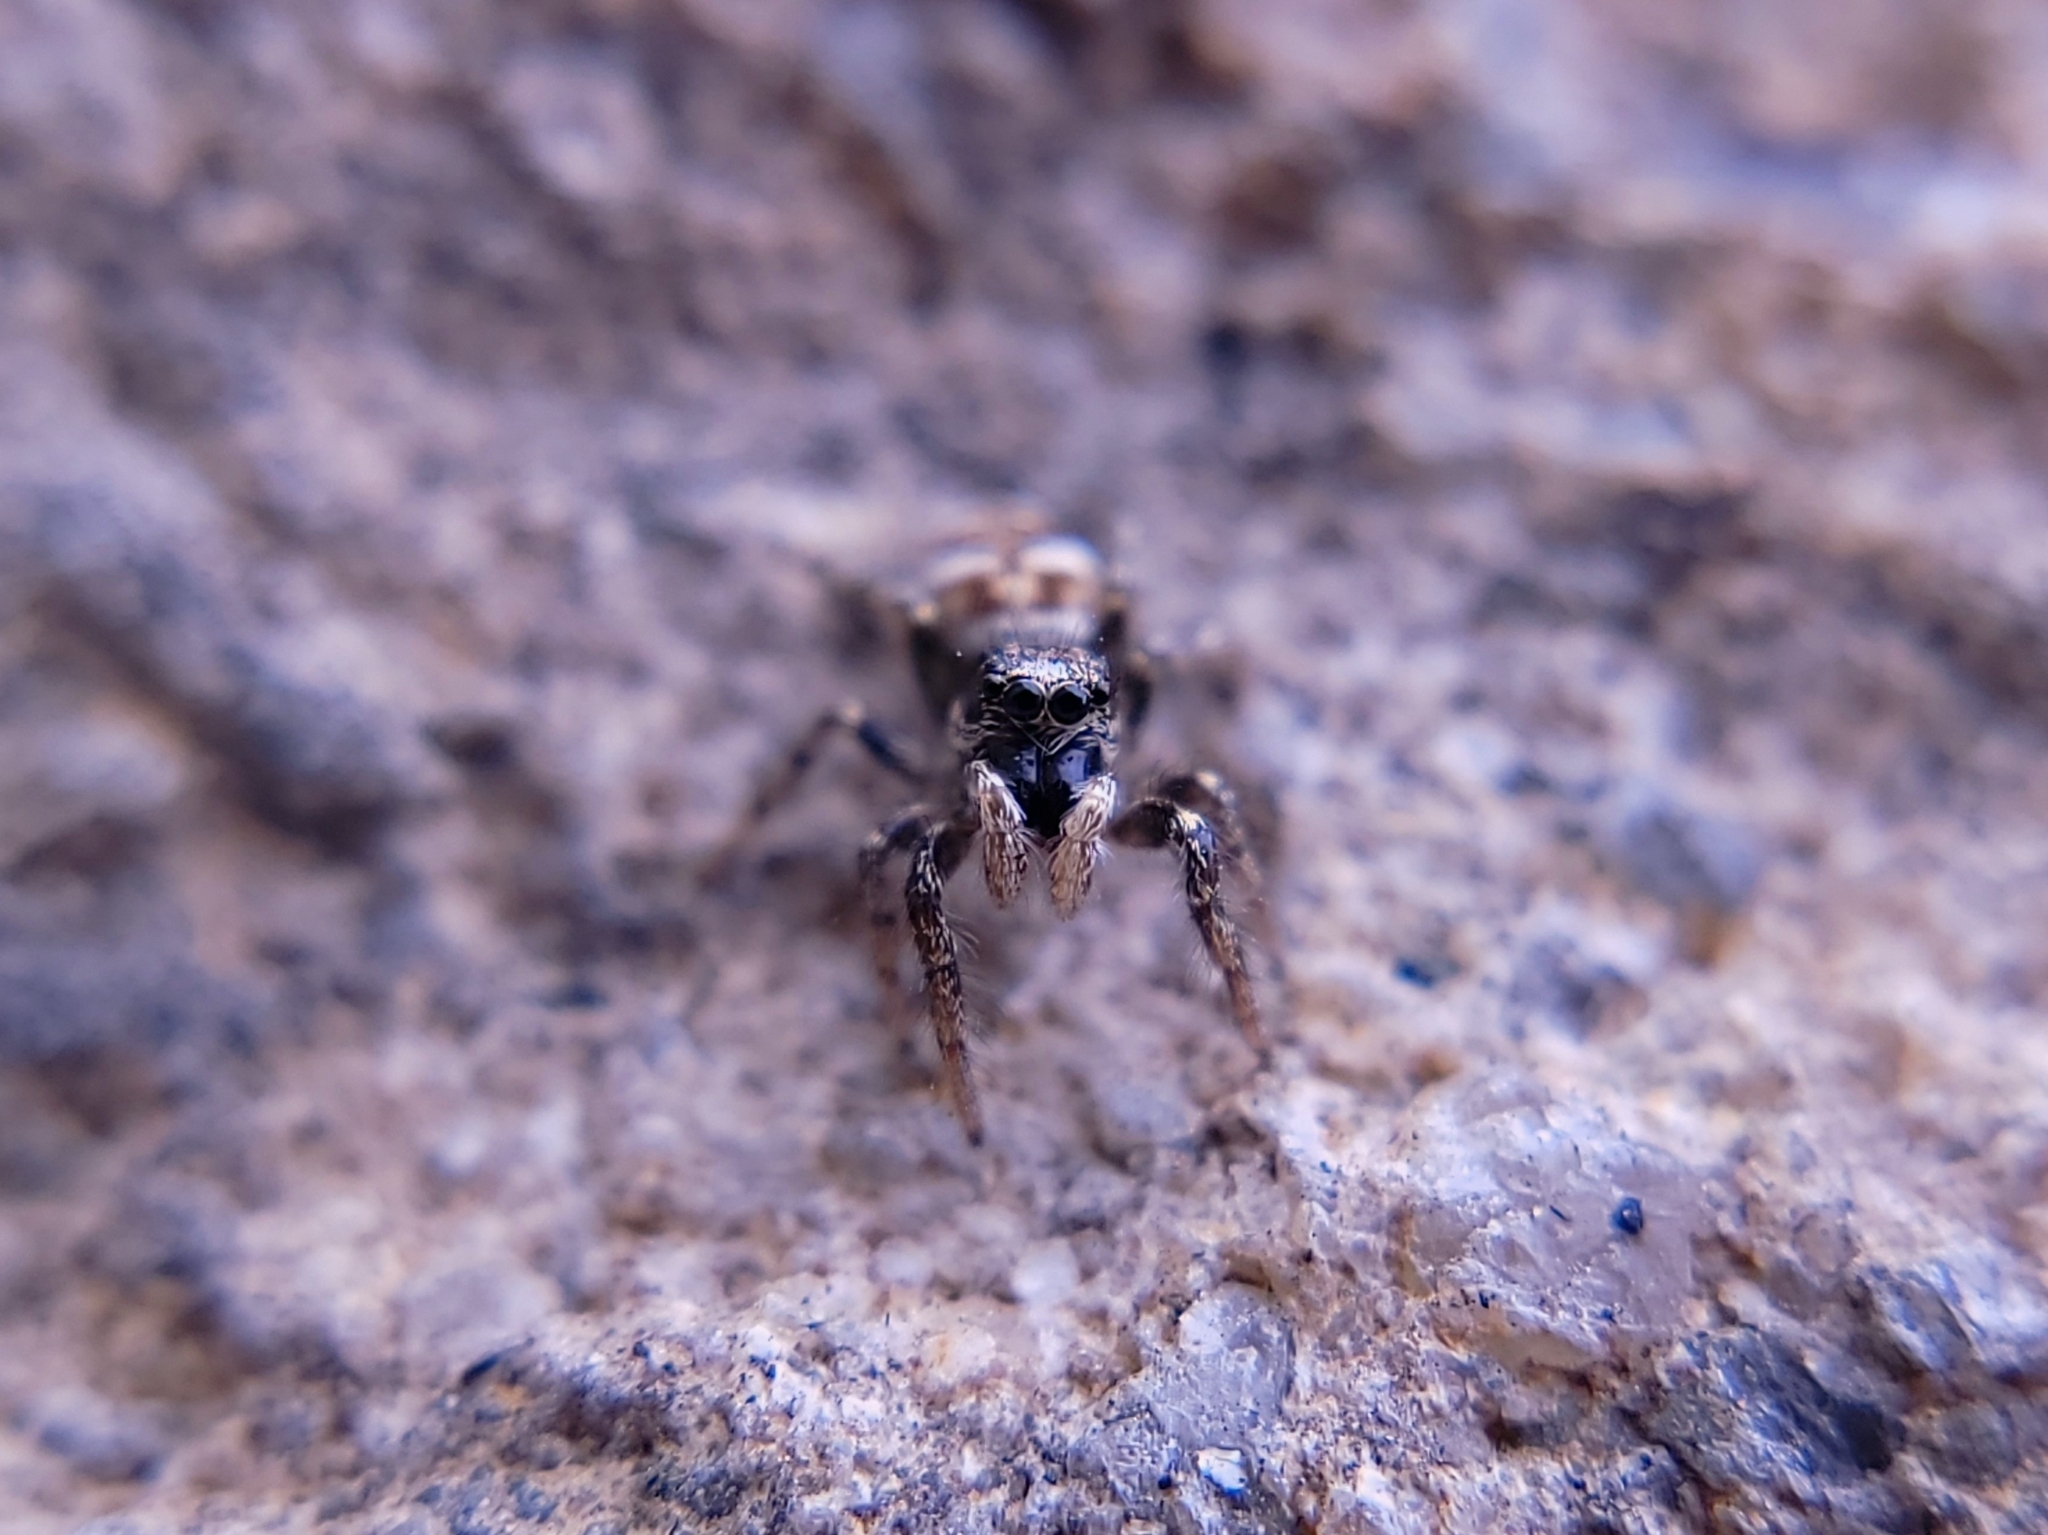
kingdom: Animalia
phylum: Arthropoda
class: Arachnida
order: Araneae
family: Salticidae
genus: Salticus
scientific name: Salticus scenicus
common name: Zebra jumper
